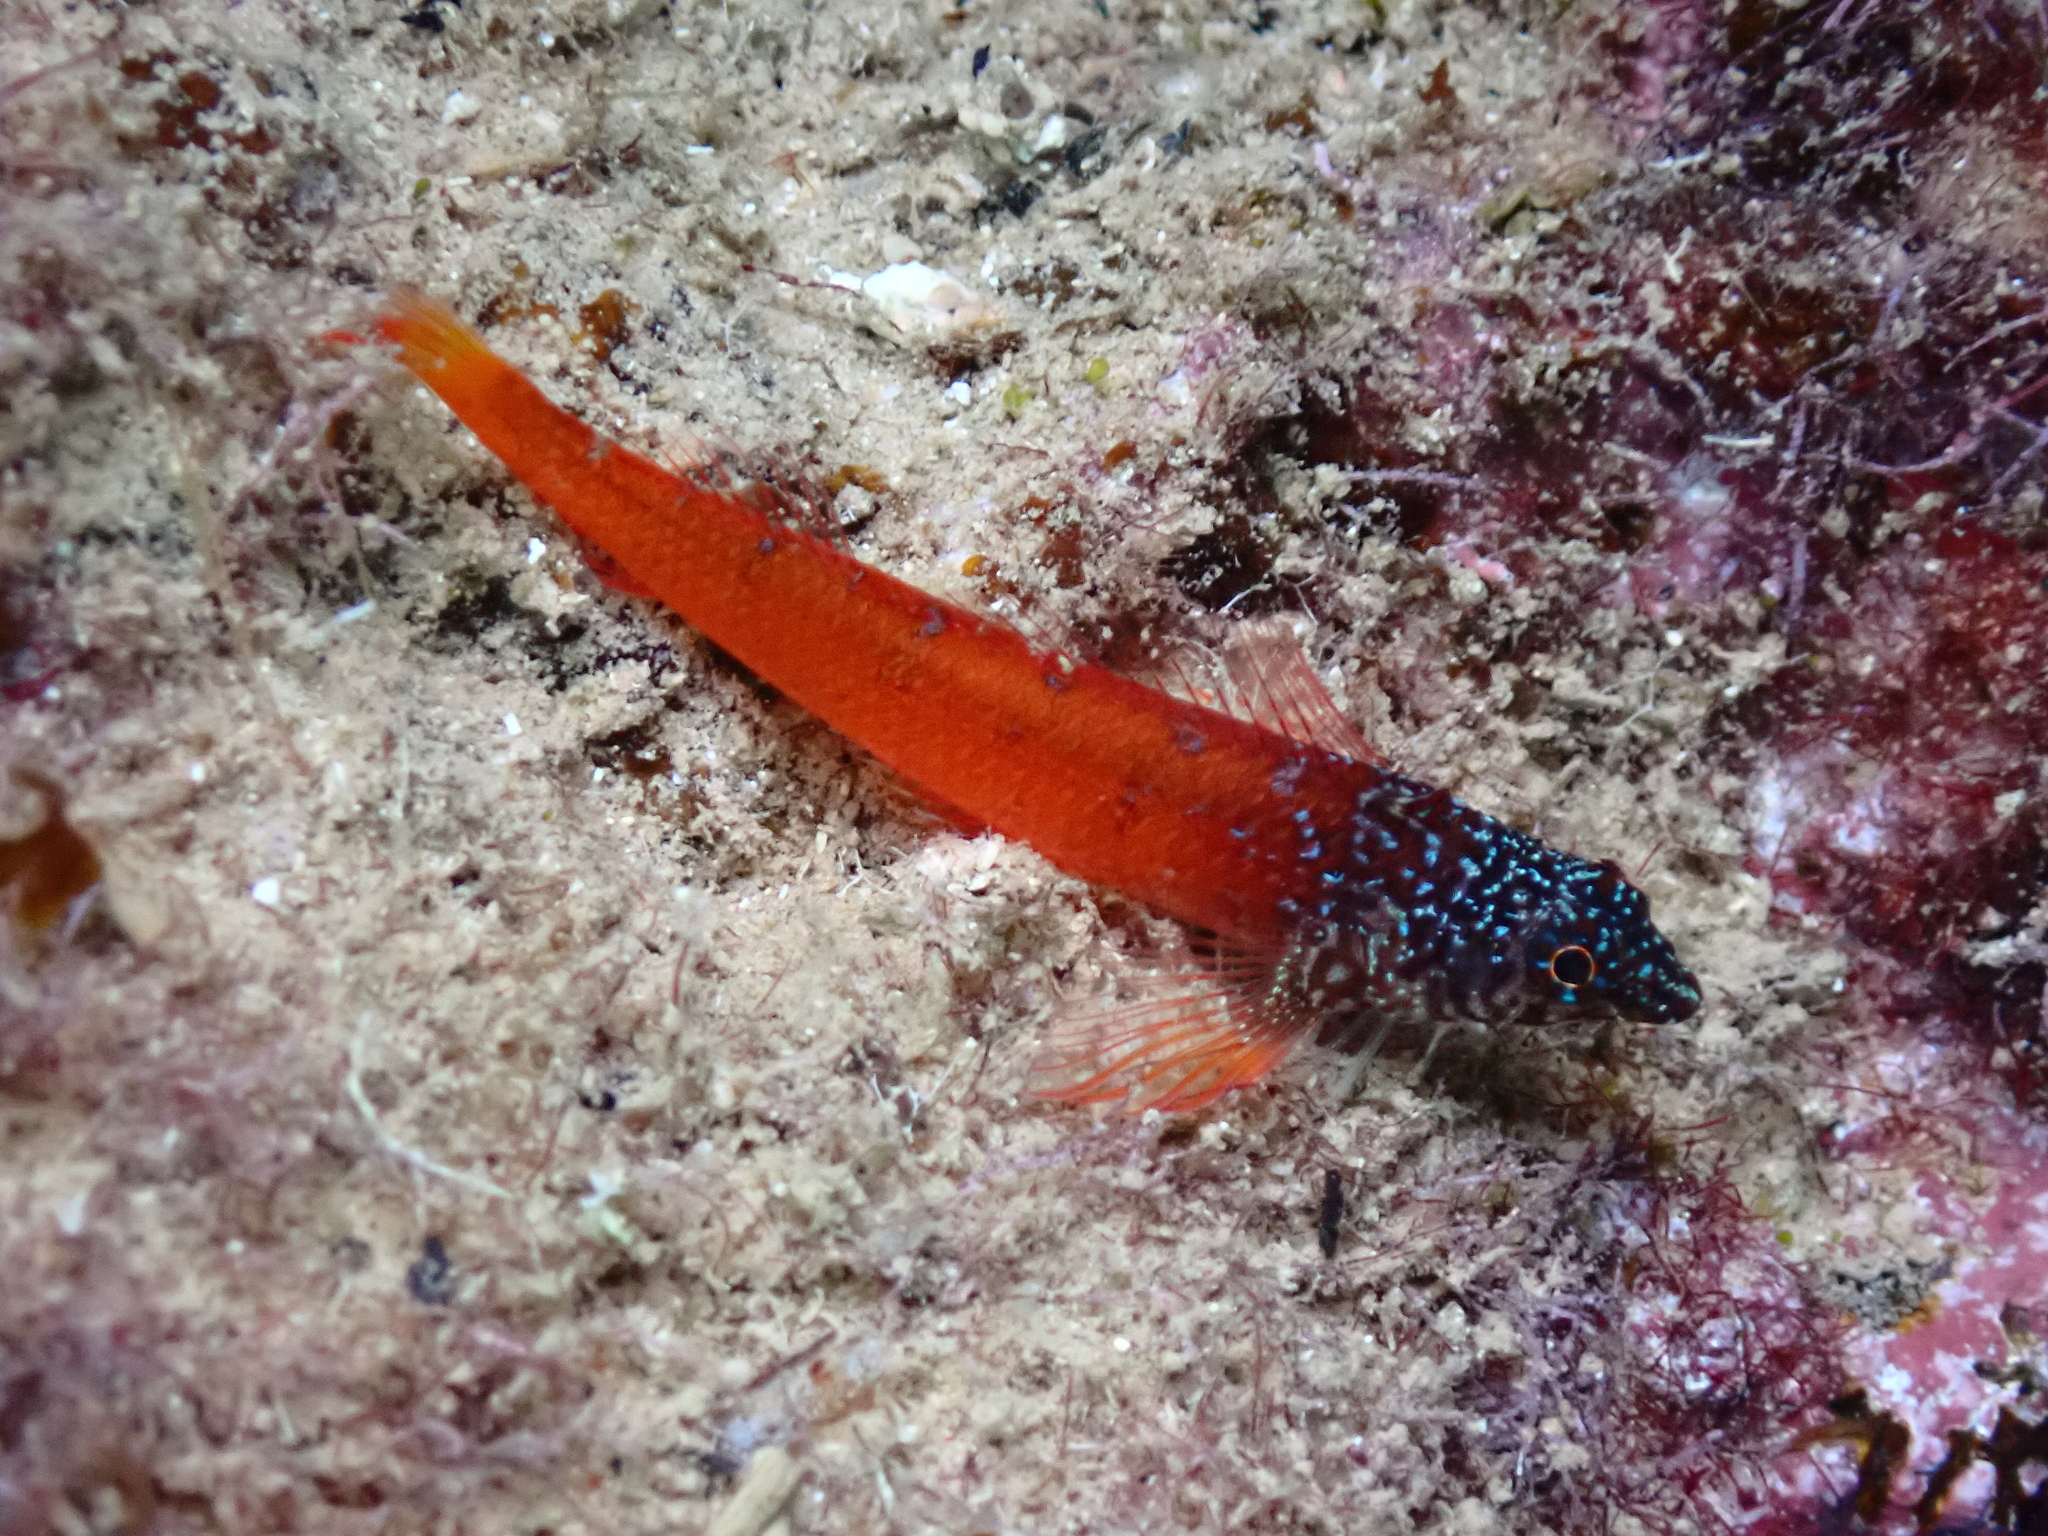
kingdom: Animalia
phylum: Chordata
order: Perciformes
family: Tripterygiidae
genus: Tripterygion
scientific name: Tripterygion melanurum
